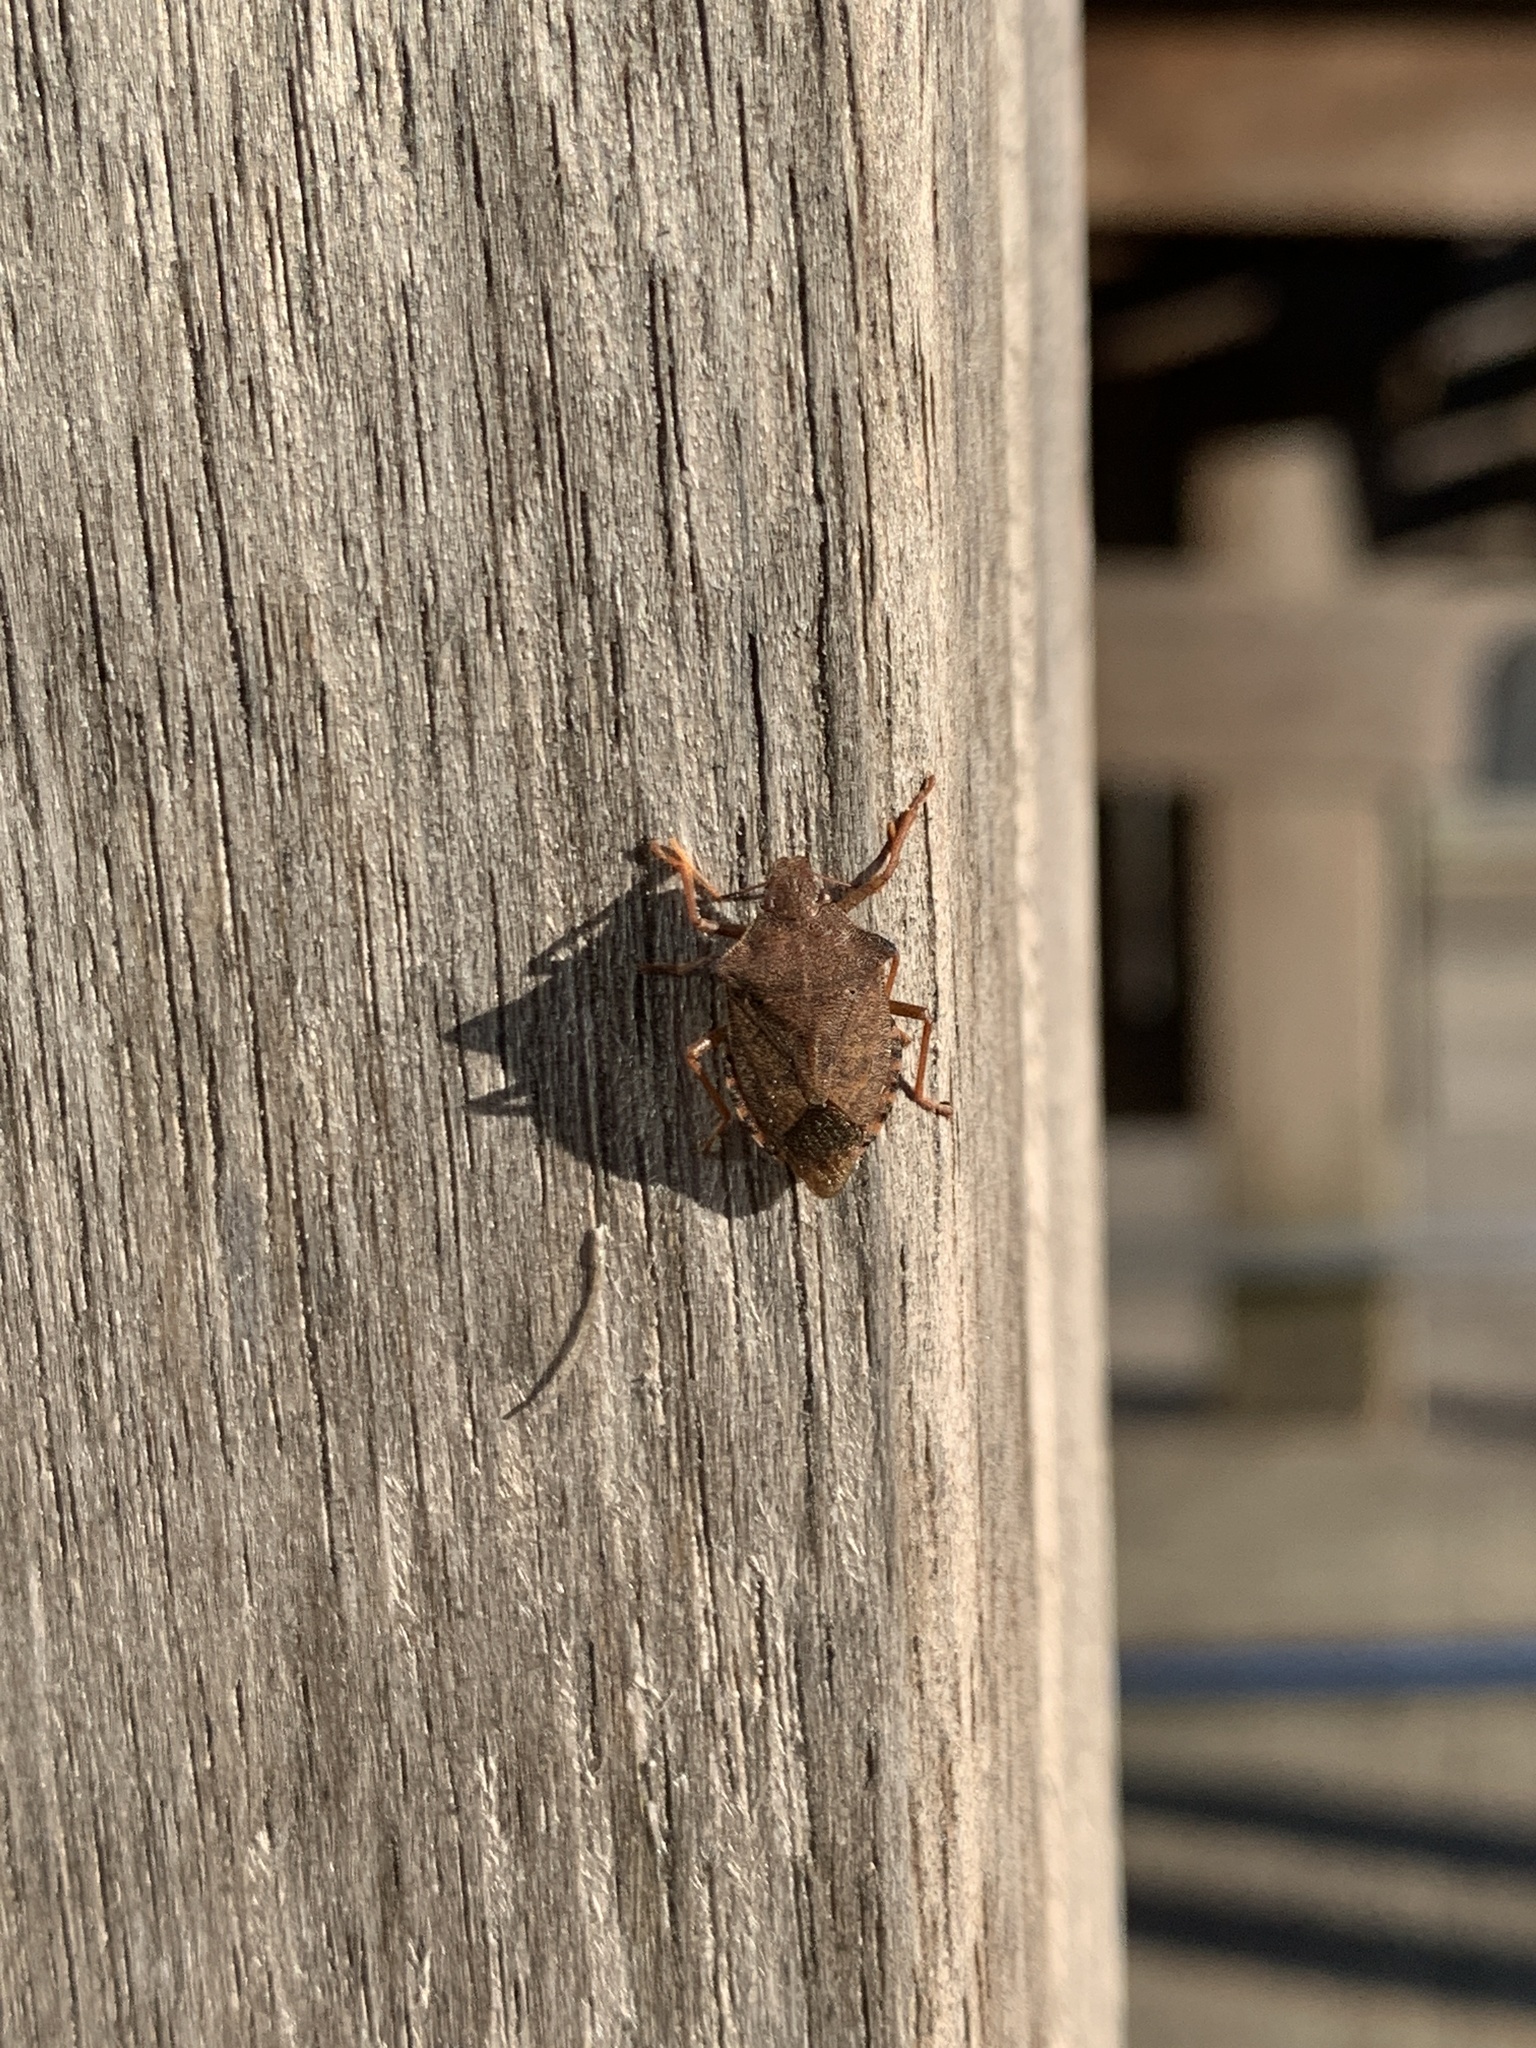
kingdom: Animalia
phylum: Arthropoda
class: Insecta
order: Hemiptera
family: Pentatomidae
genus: Arma
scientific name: Arma custos
